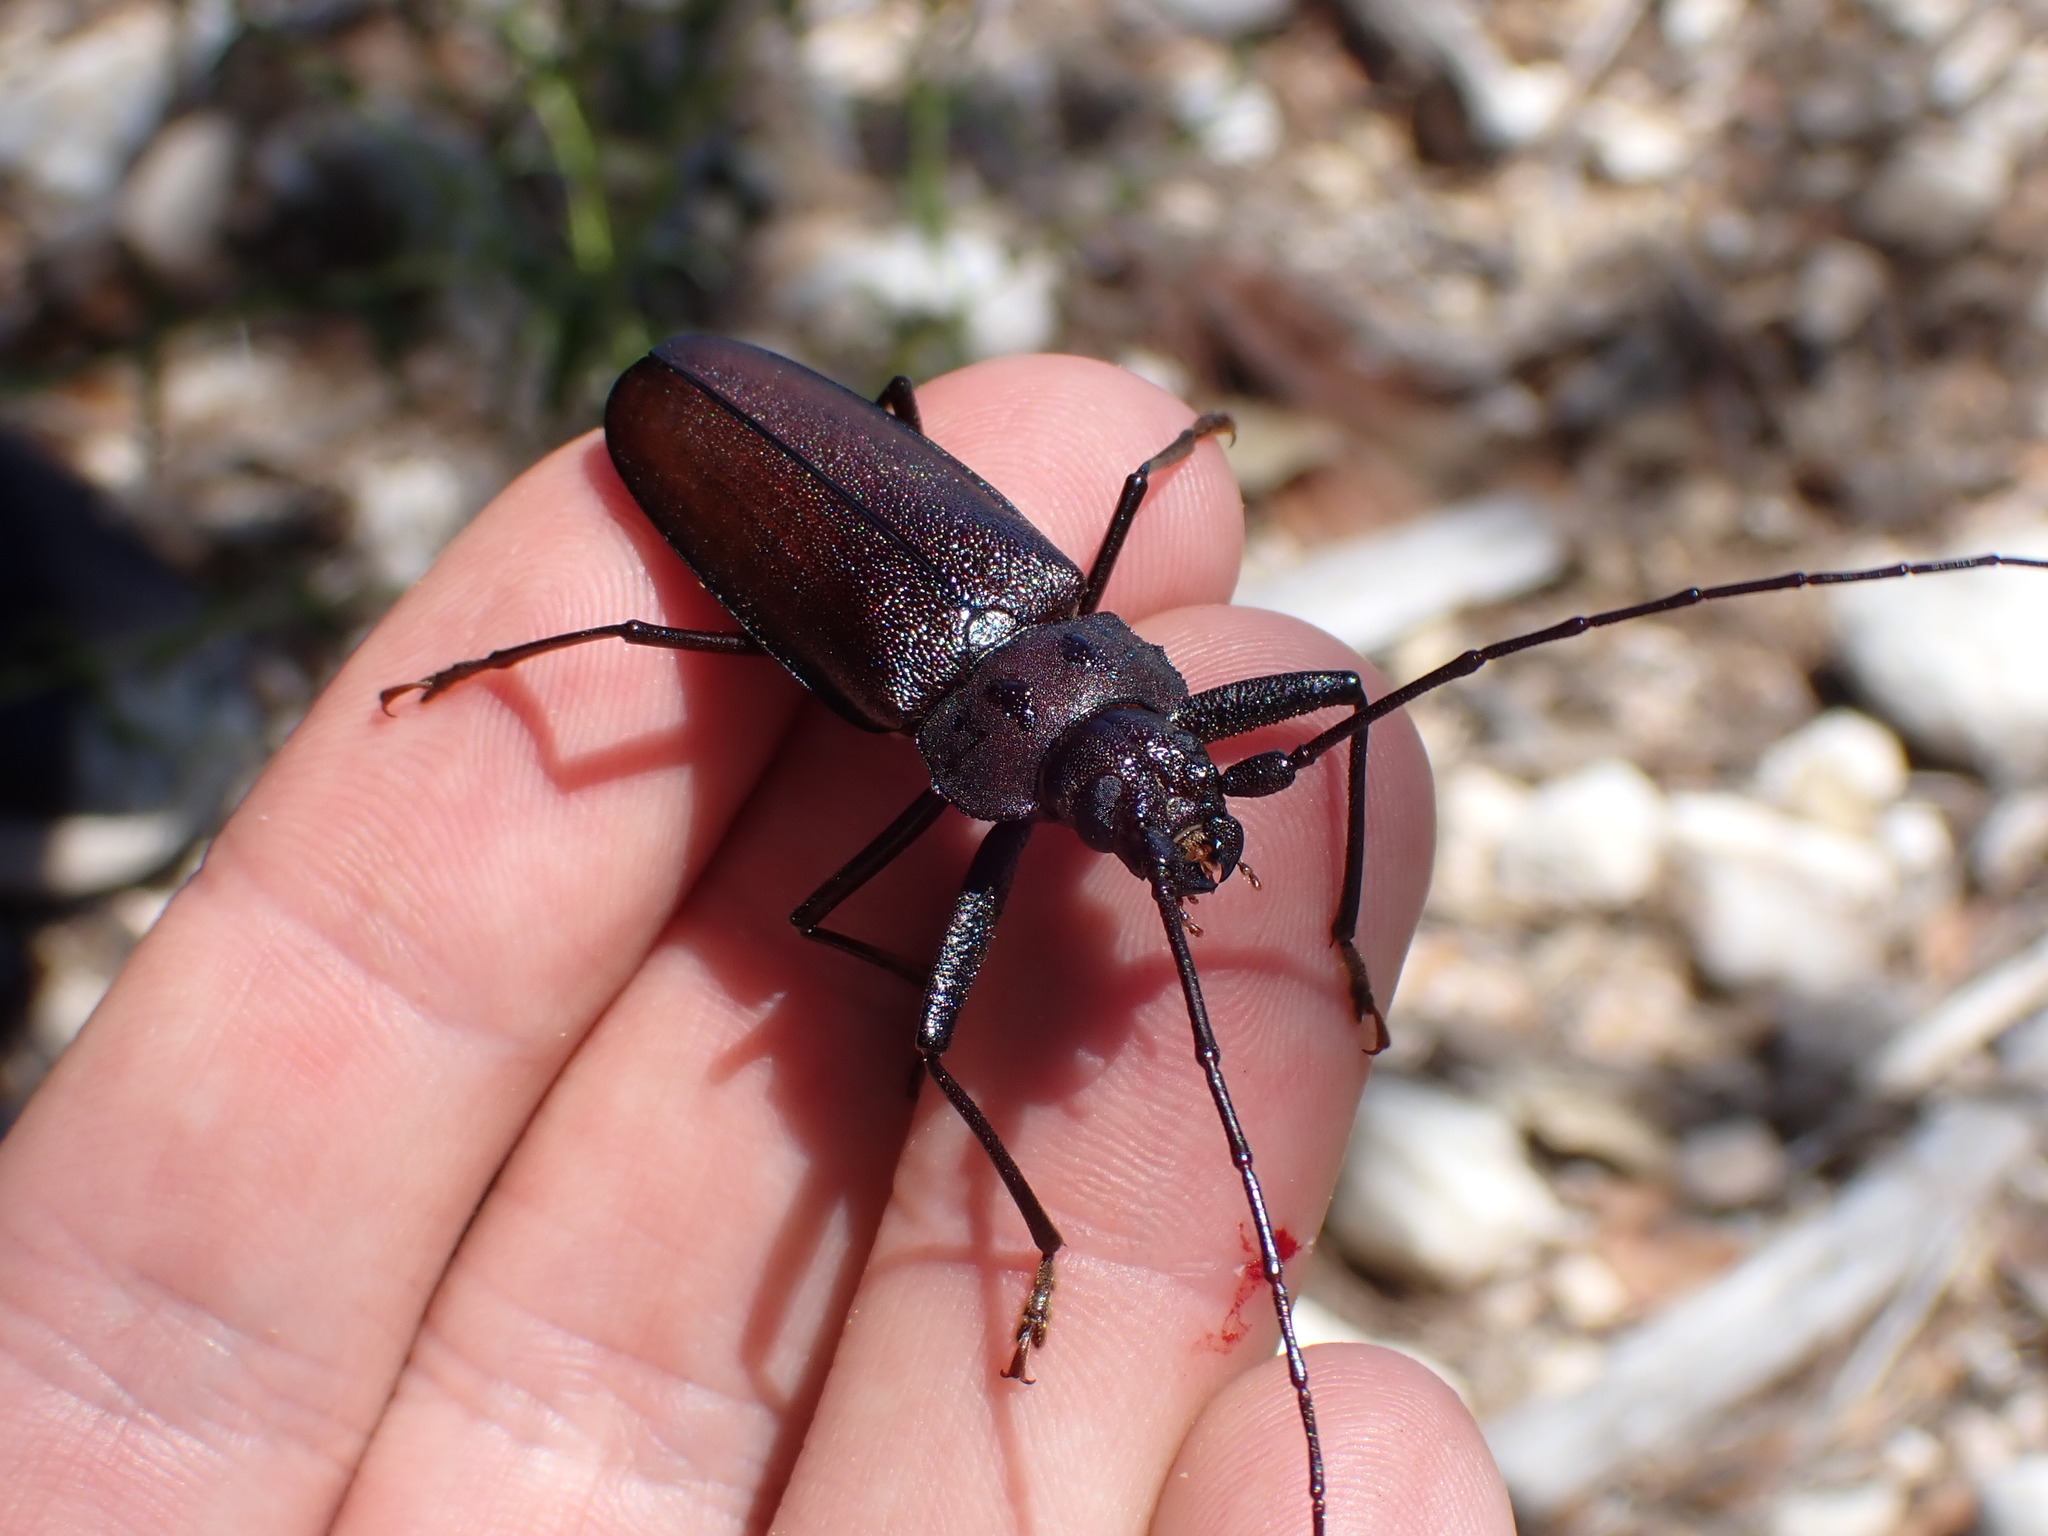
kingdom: Animalia
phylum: Arthropoda
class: Insecta
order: Coleoptera
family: Cerambycidae
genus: Ergates
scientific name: Ergates faber
